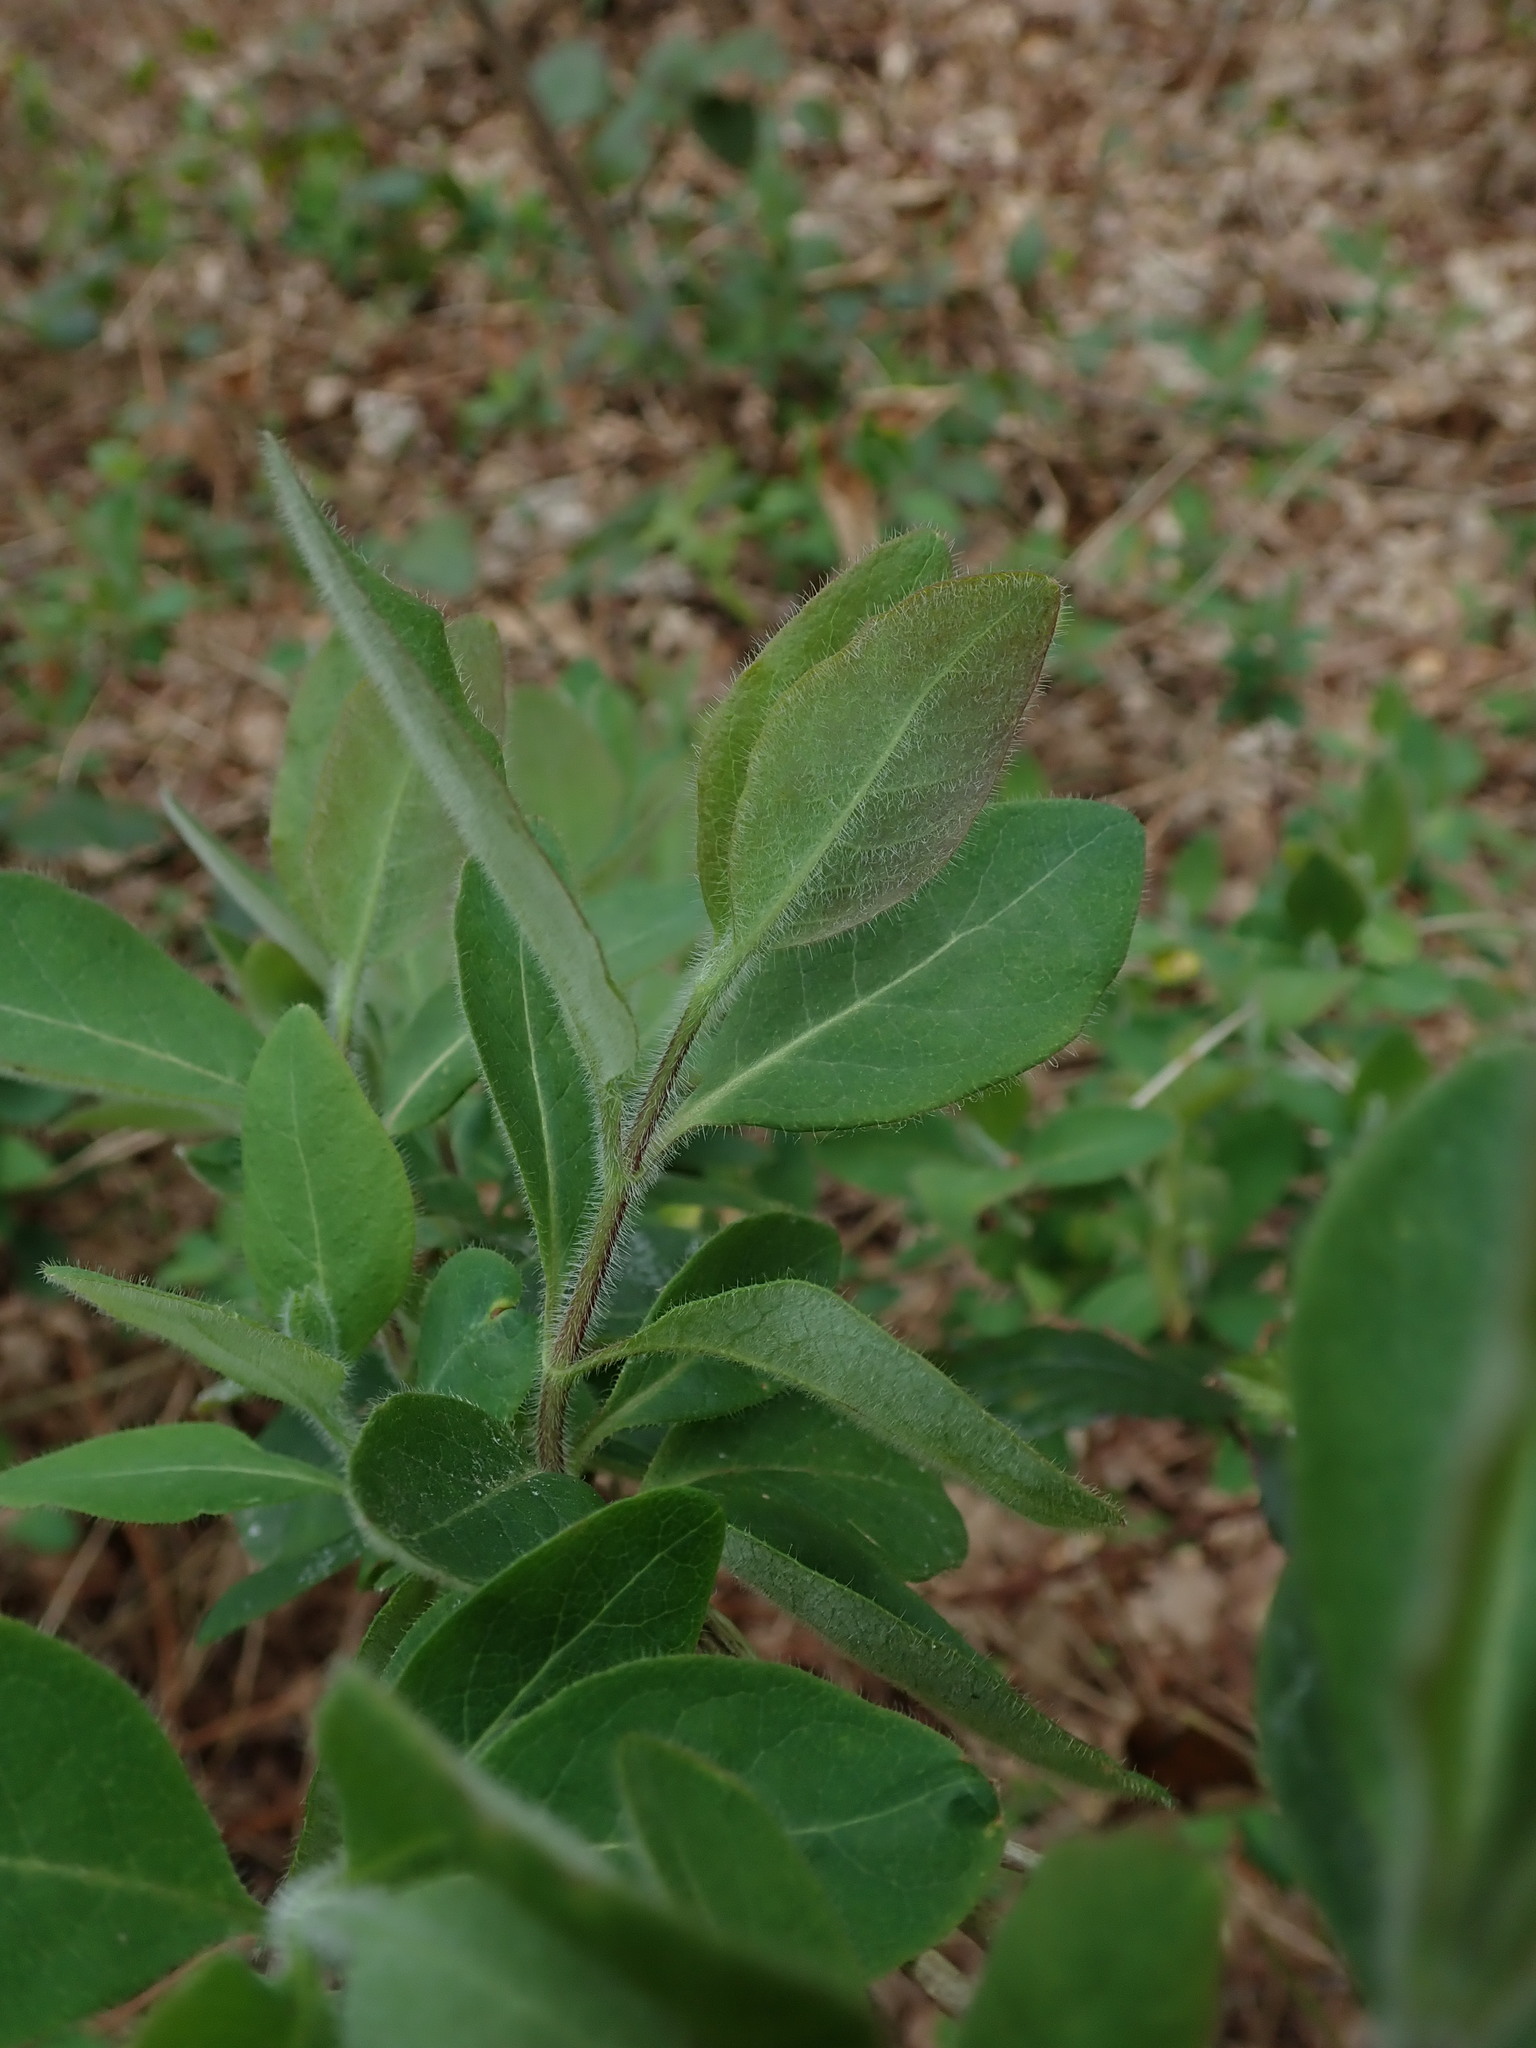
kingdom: Plantae
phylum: Tracheophyta
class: Magnoliopsida
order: Dipsacales
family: Caprifoliaceae
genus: Lonicera
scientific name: Lonicera periclymenum
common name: European honeysuckle
